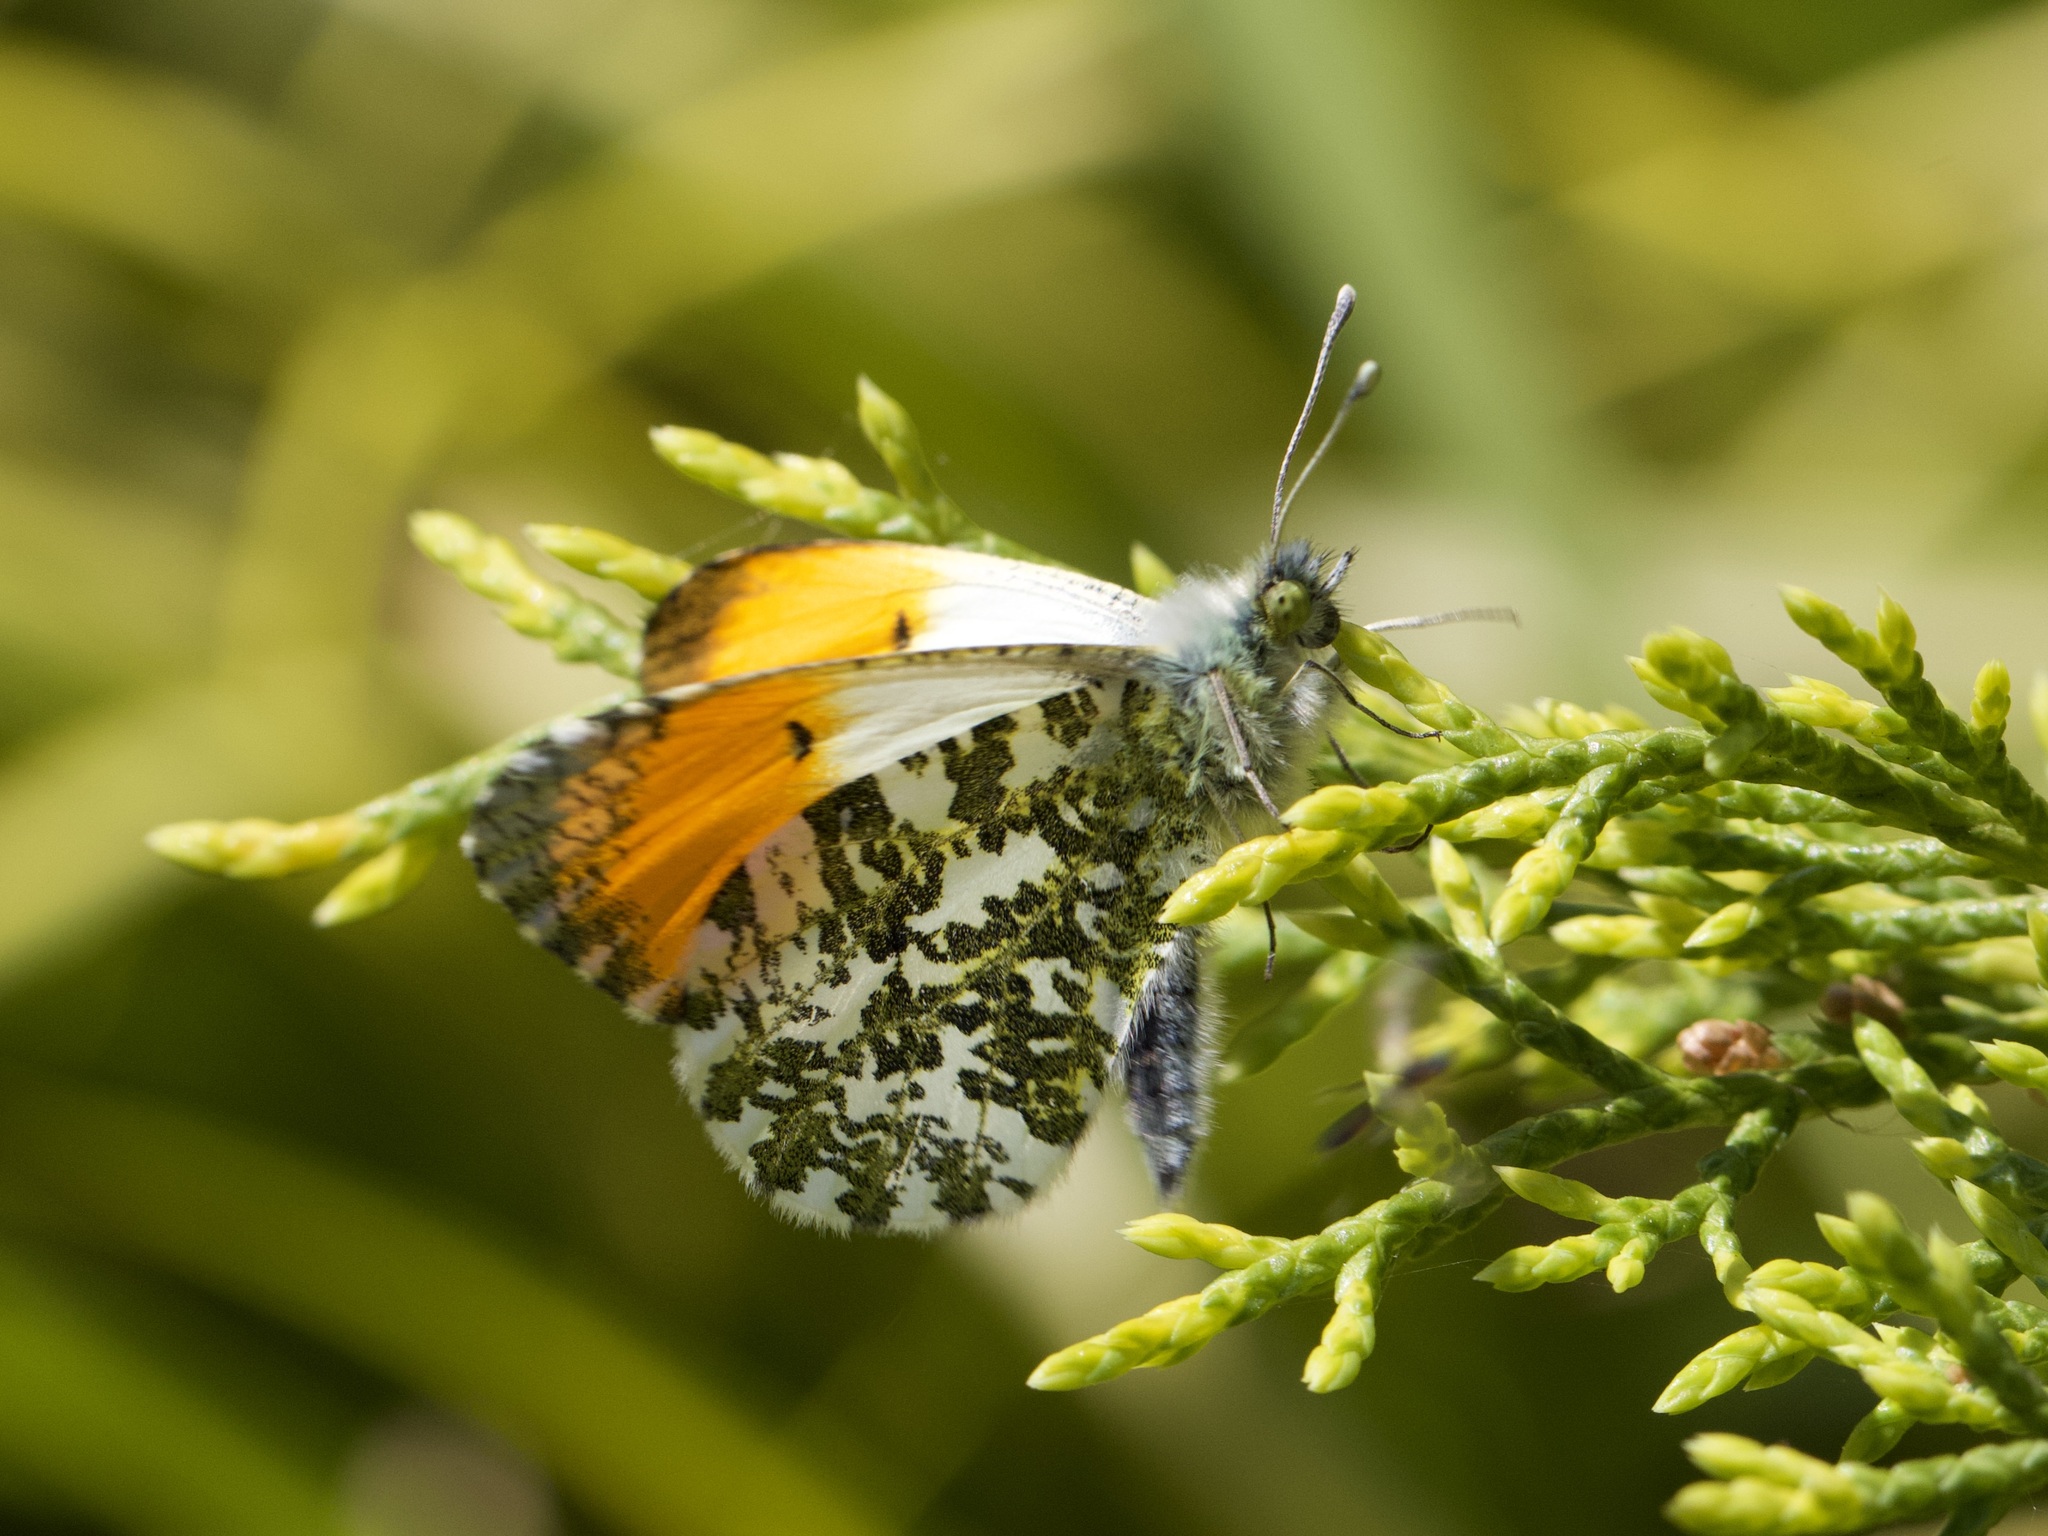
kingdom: Animalia
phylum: Arthropoda
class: Insecta
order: Lepidoptera
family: Pieridae
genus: Anthocharis
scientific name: Anthocharis cardamines
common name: Orange-tip
